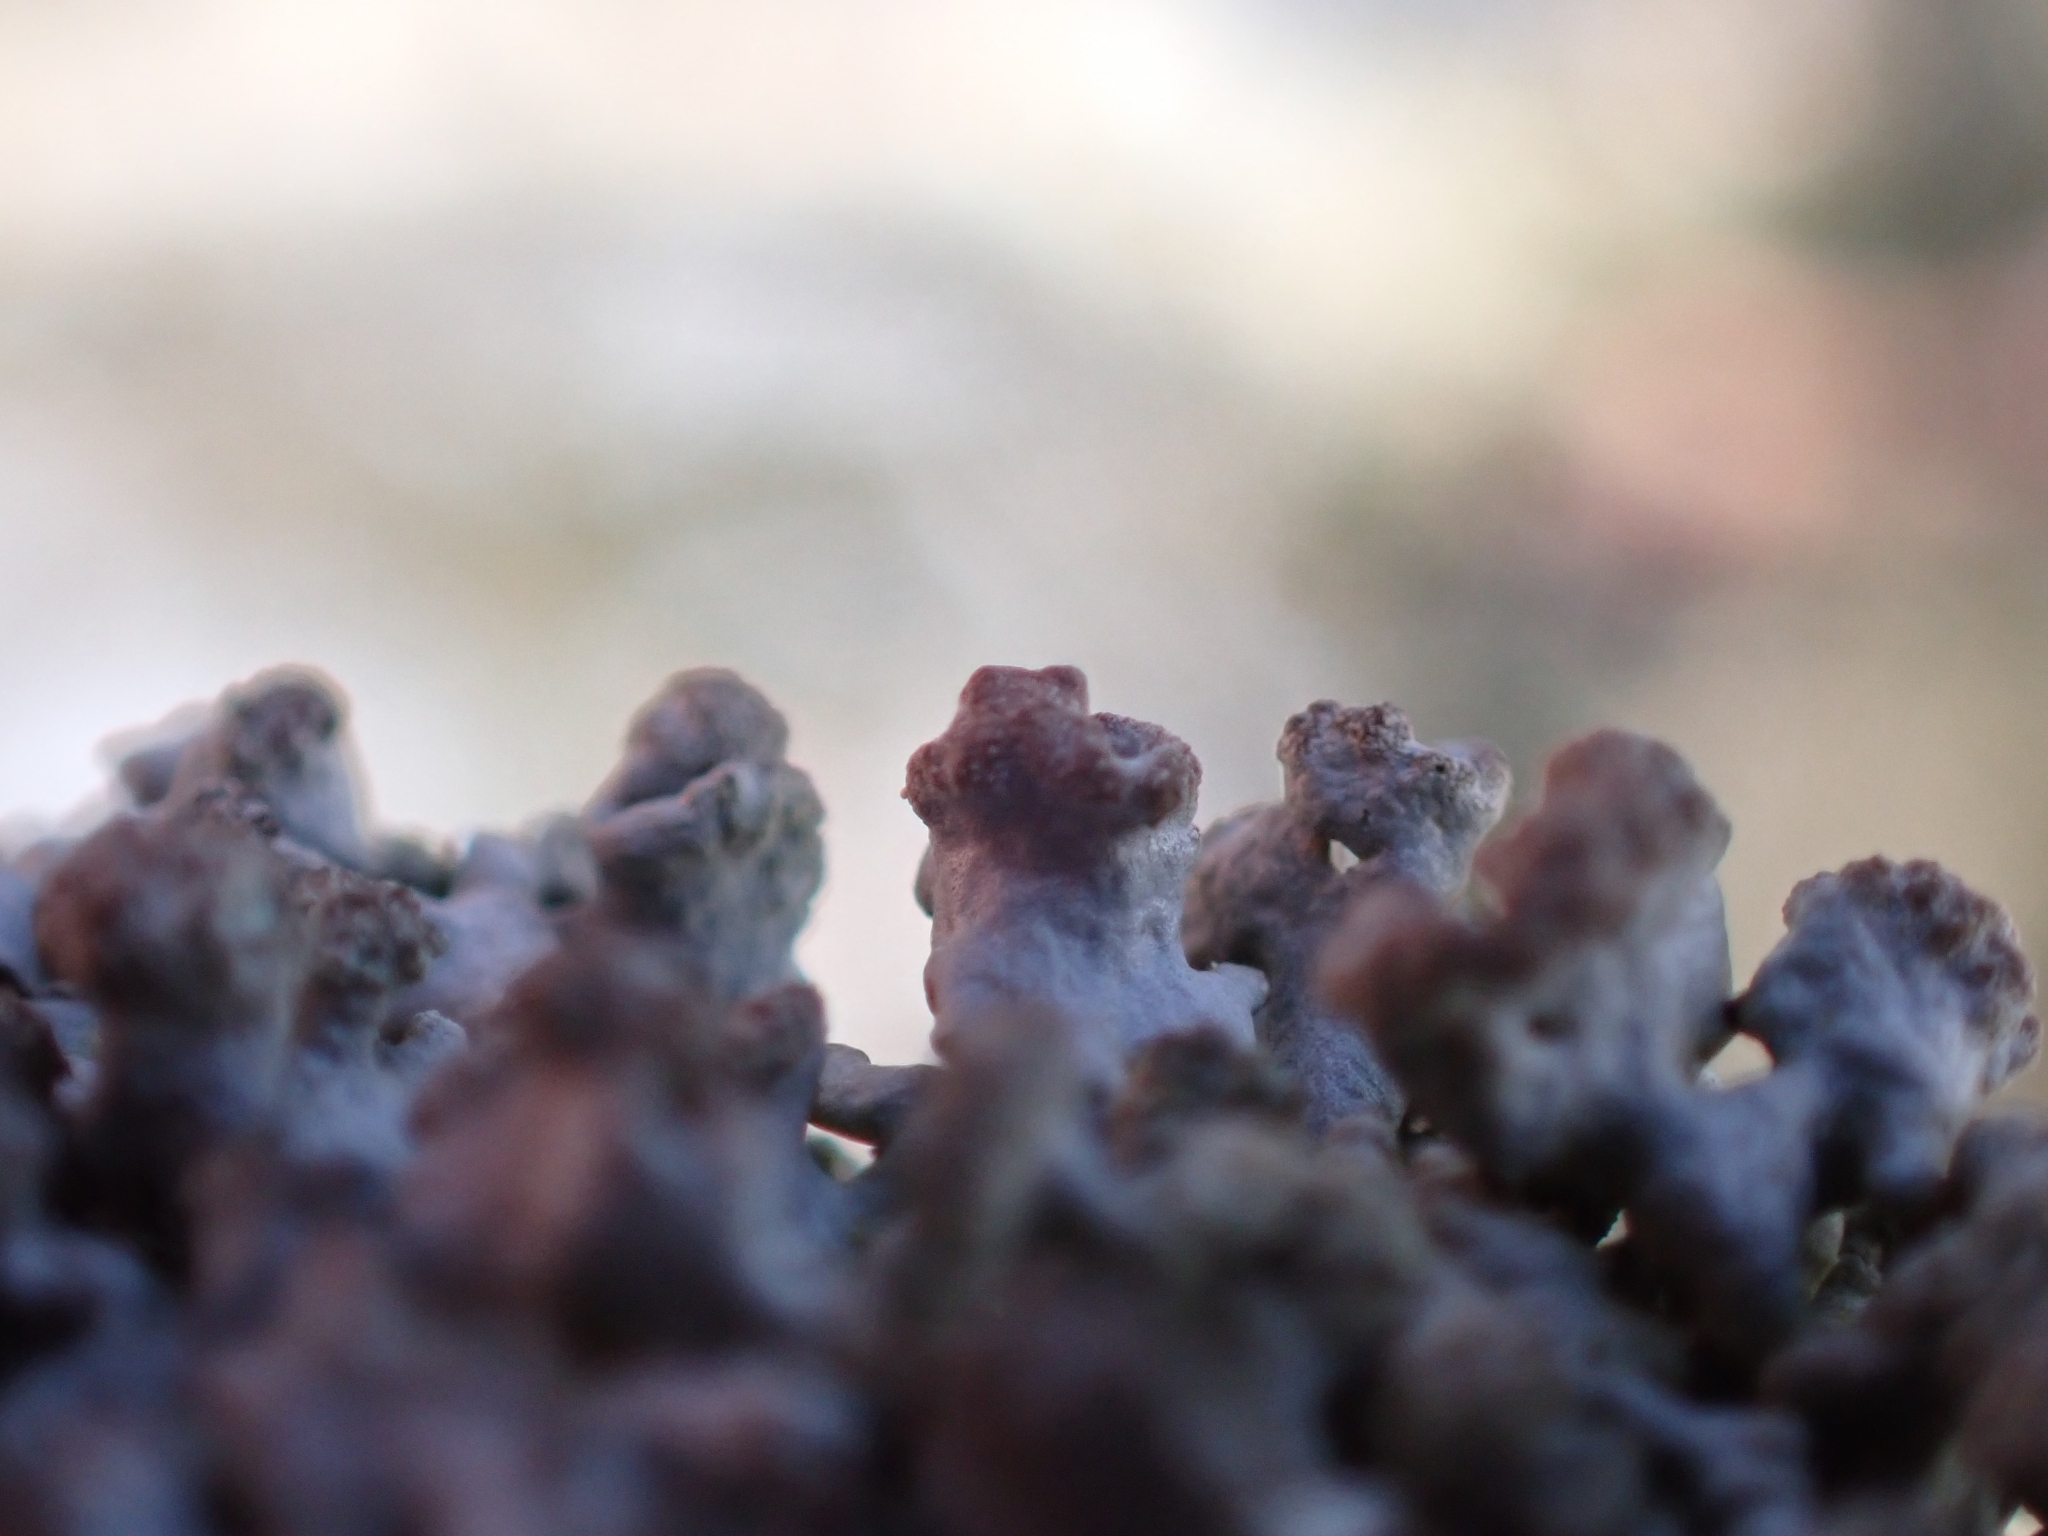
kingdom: Fungi
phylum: Ascomycota
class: Lecanoromycetes
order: Lecanorales
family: Parmeliaceae
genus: Hypogymnia
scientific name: Hypogymnia tubulosa
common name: Powder-headed tube lichen
